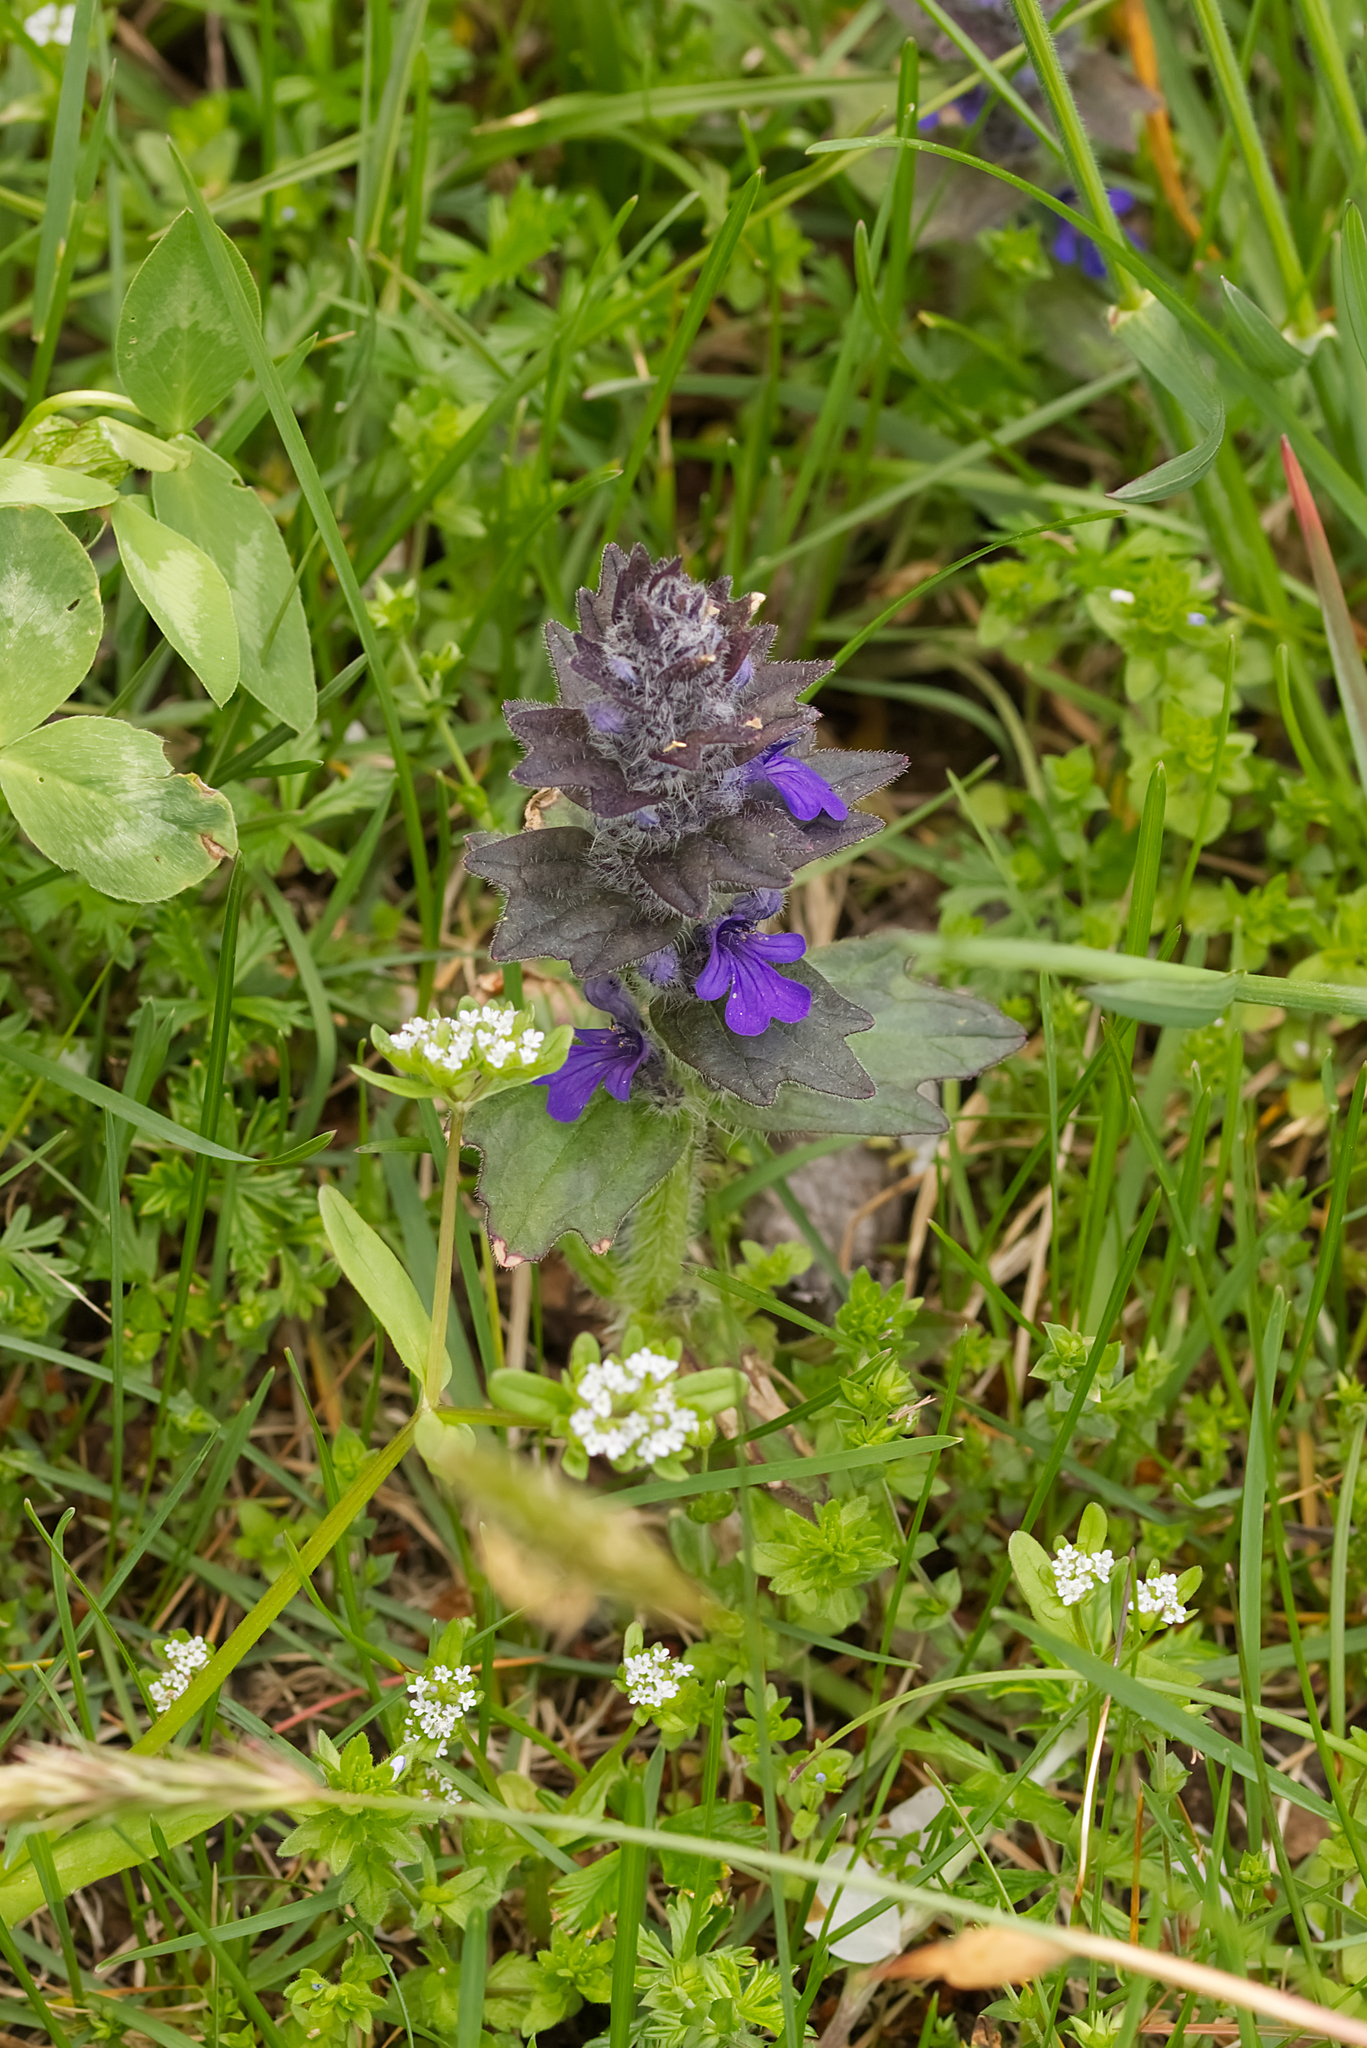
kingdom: Plantae
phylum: Tracheophyta
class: Magnoliopsida
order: Lamiales
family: Lamiaceae
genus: Ajuga
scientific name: Ajuga genevensis
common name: Blue bugle
